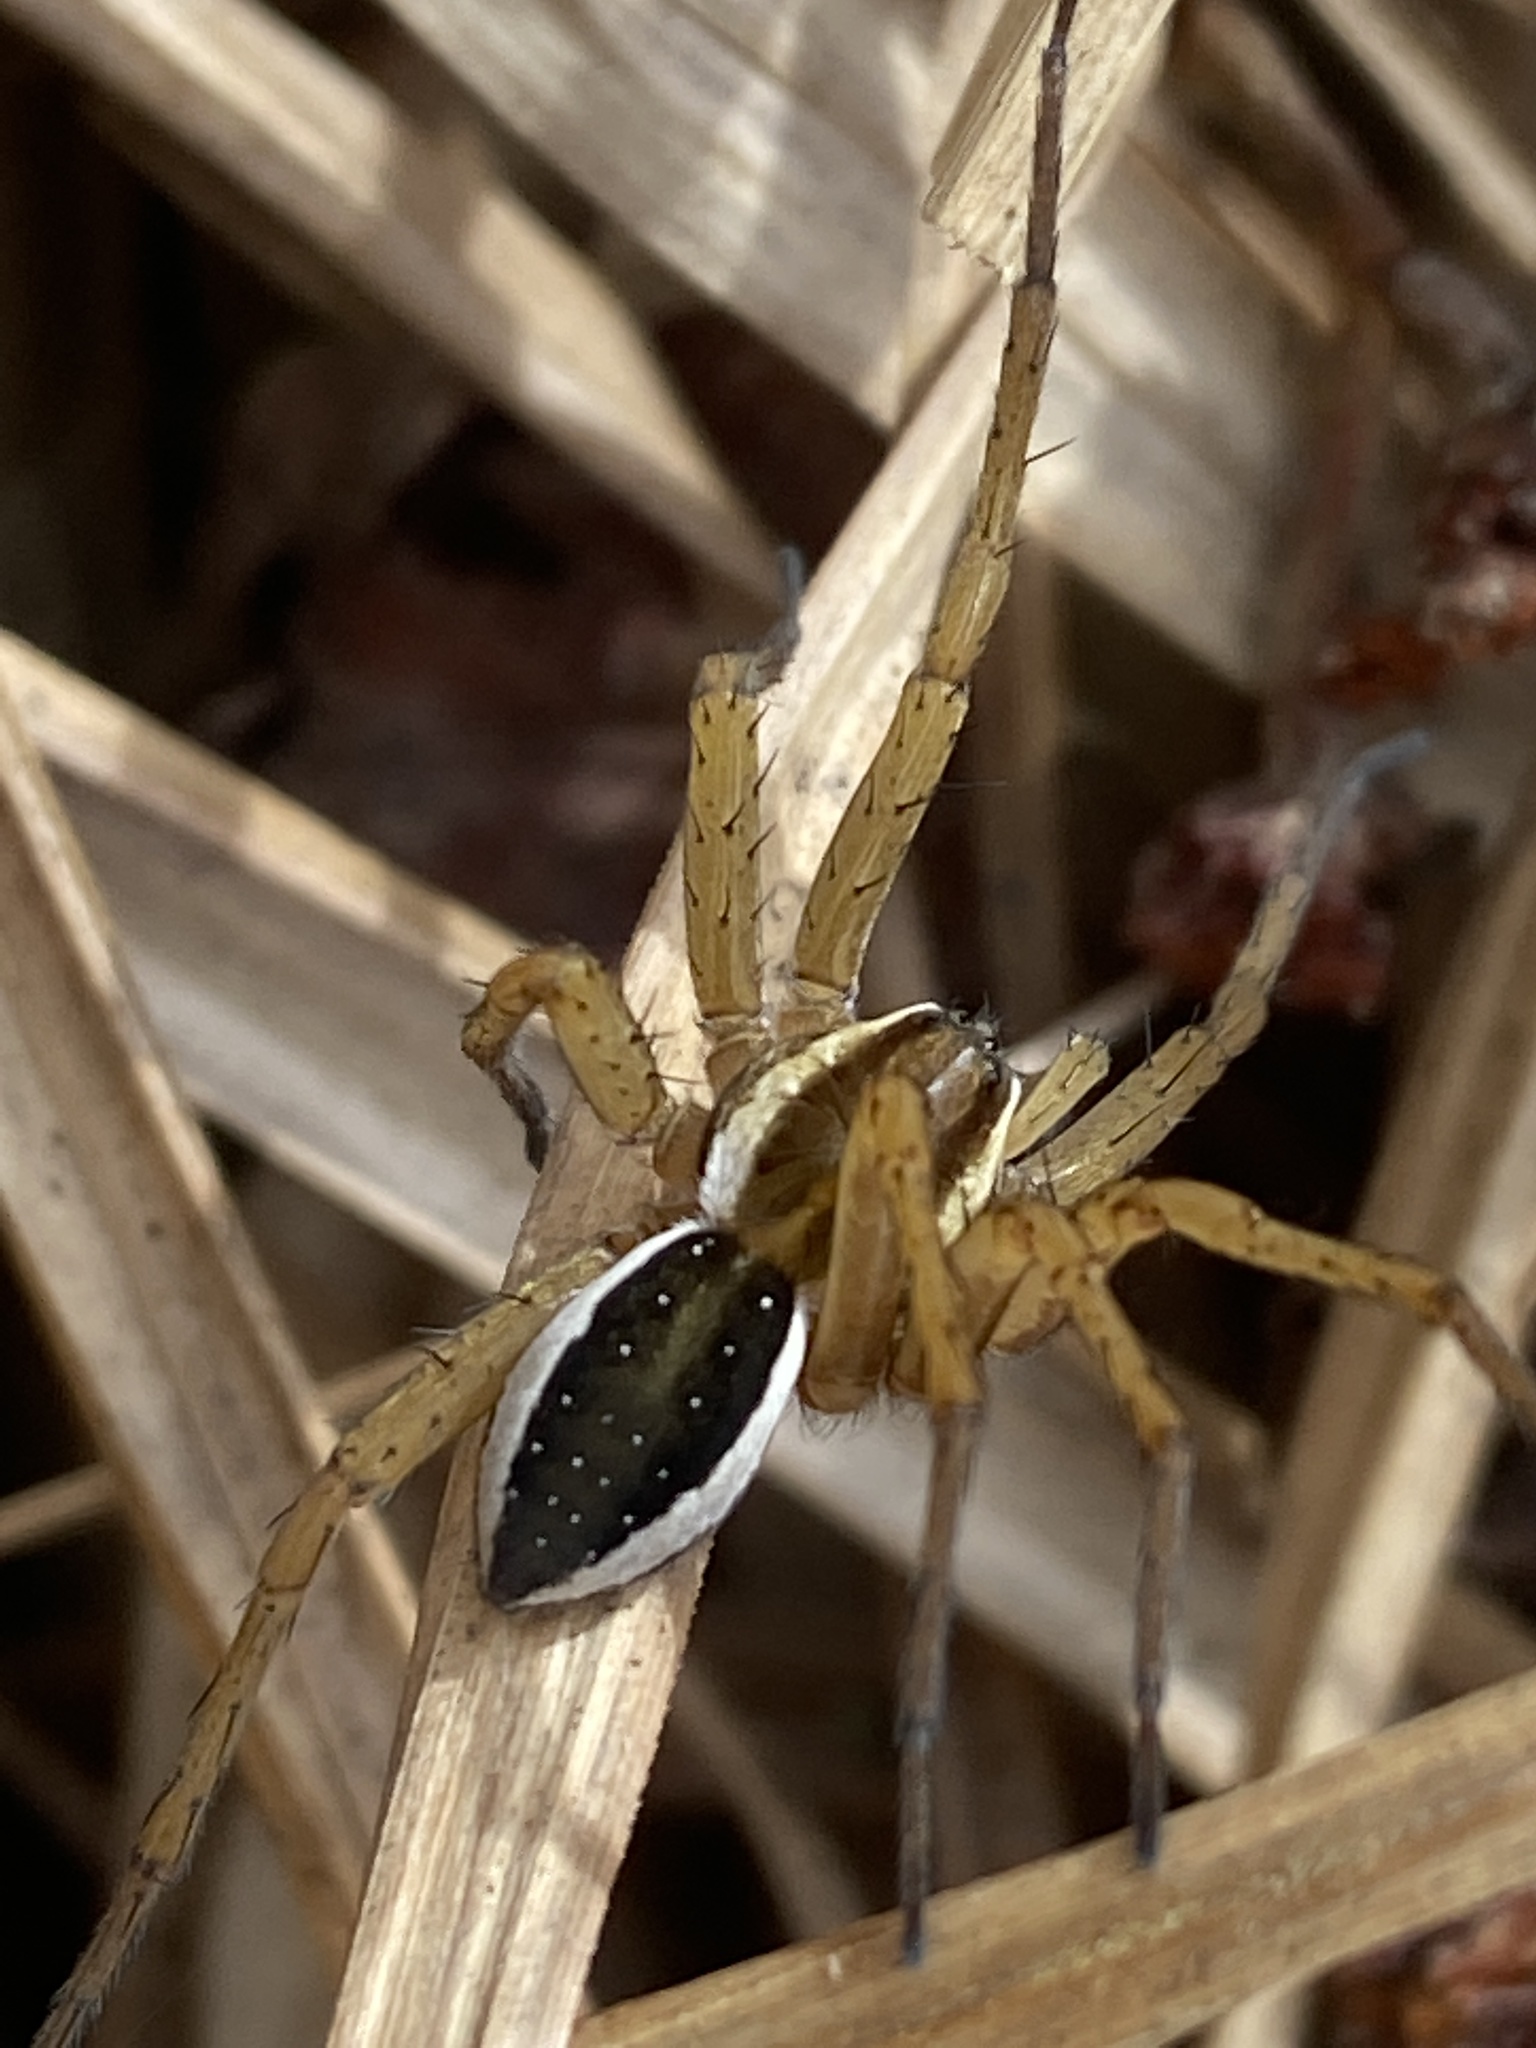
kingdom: Animalia
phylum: Arthropoda
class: Arachnida
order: Araneae
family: Pisauridae
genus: Dolomedes
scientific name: Dolomedes fimbriatus
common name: Raft spider
